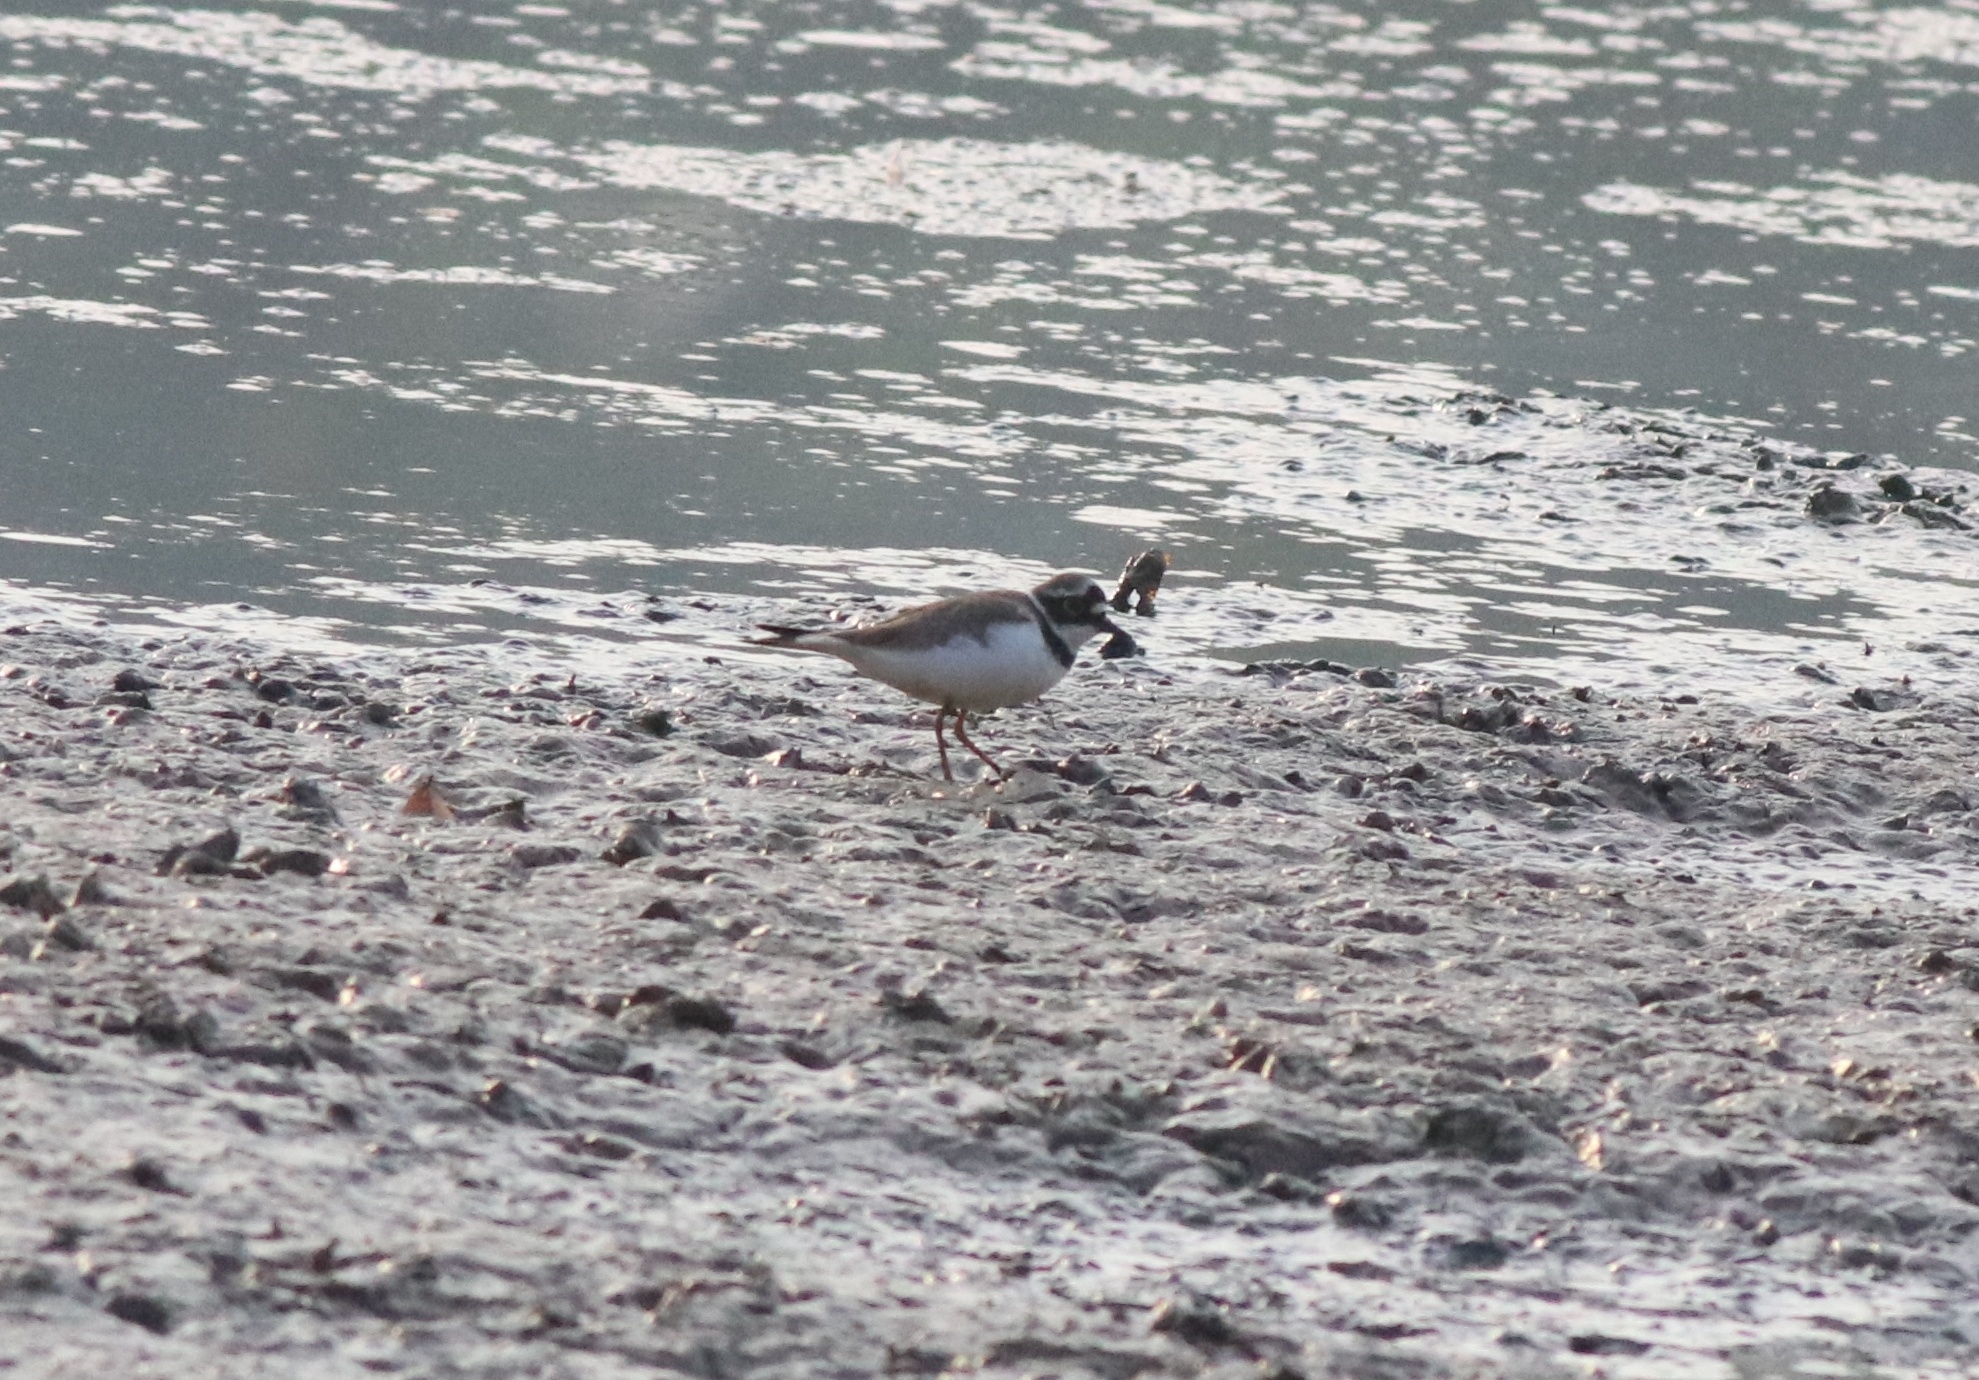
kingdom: Animalia
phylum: Chordata
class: Aves
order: Charadriiformes
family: Charadriidae
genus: Charadrius
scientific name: Charadrius dubius
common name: Little ringed plover
